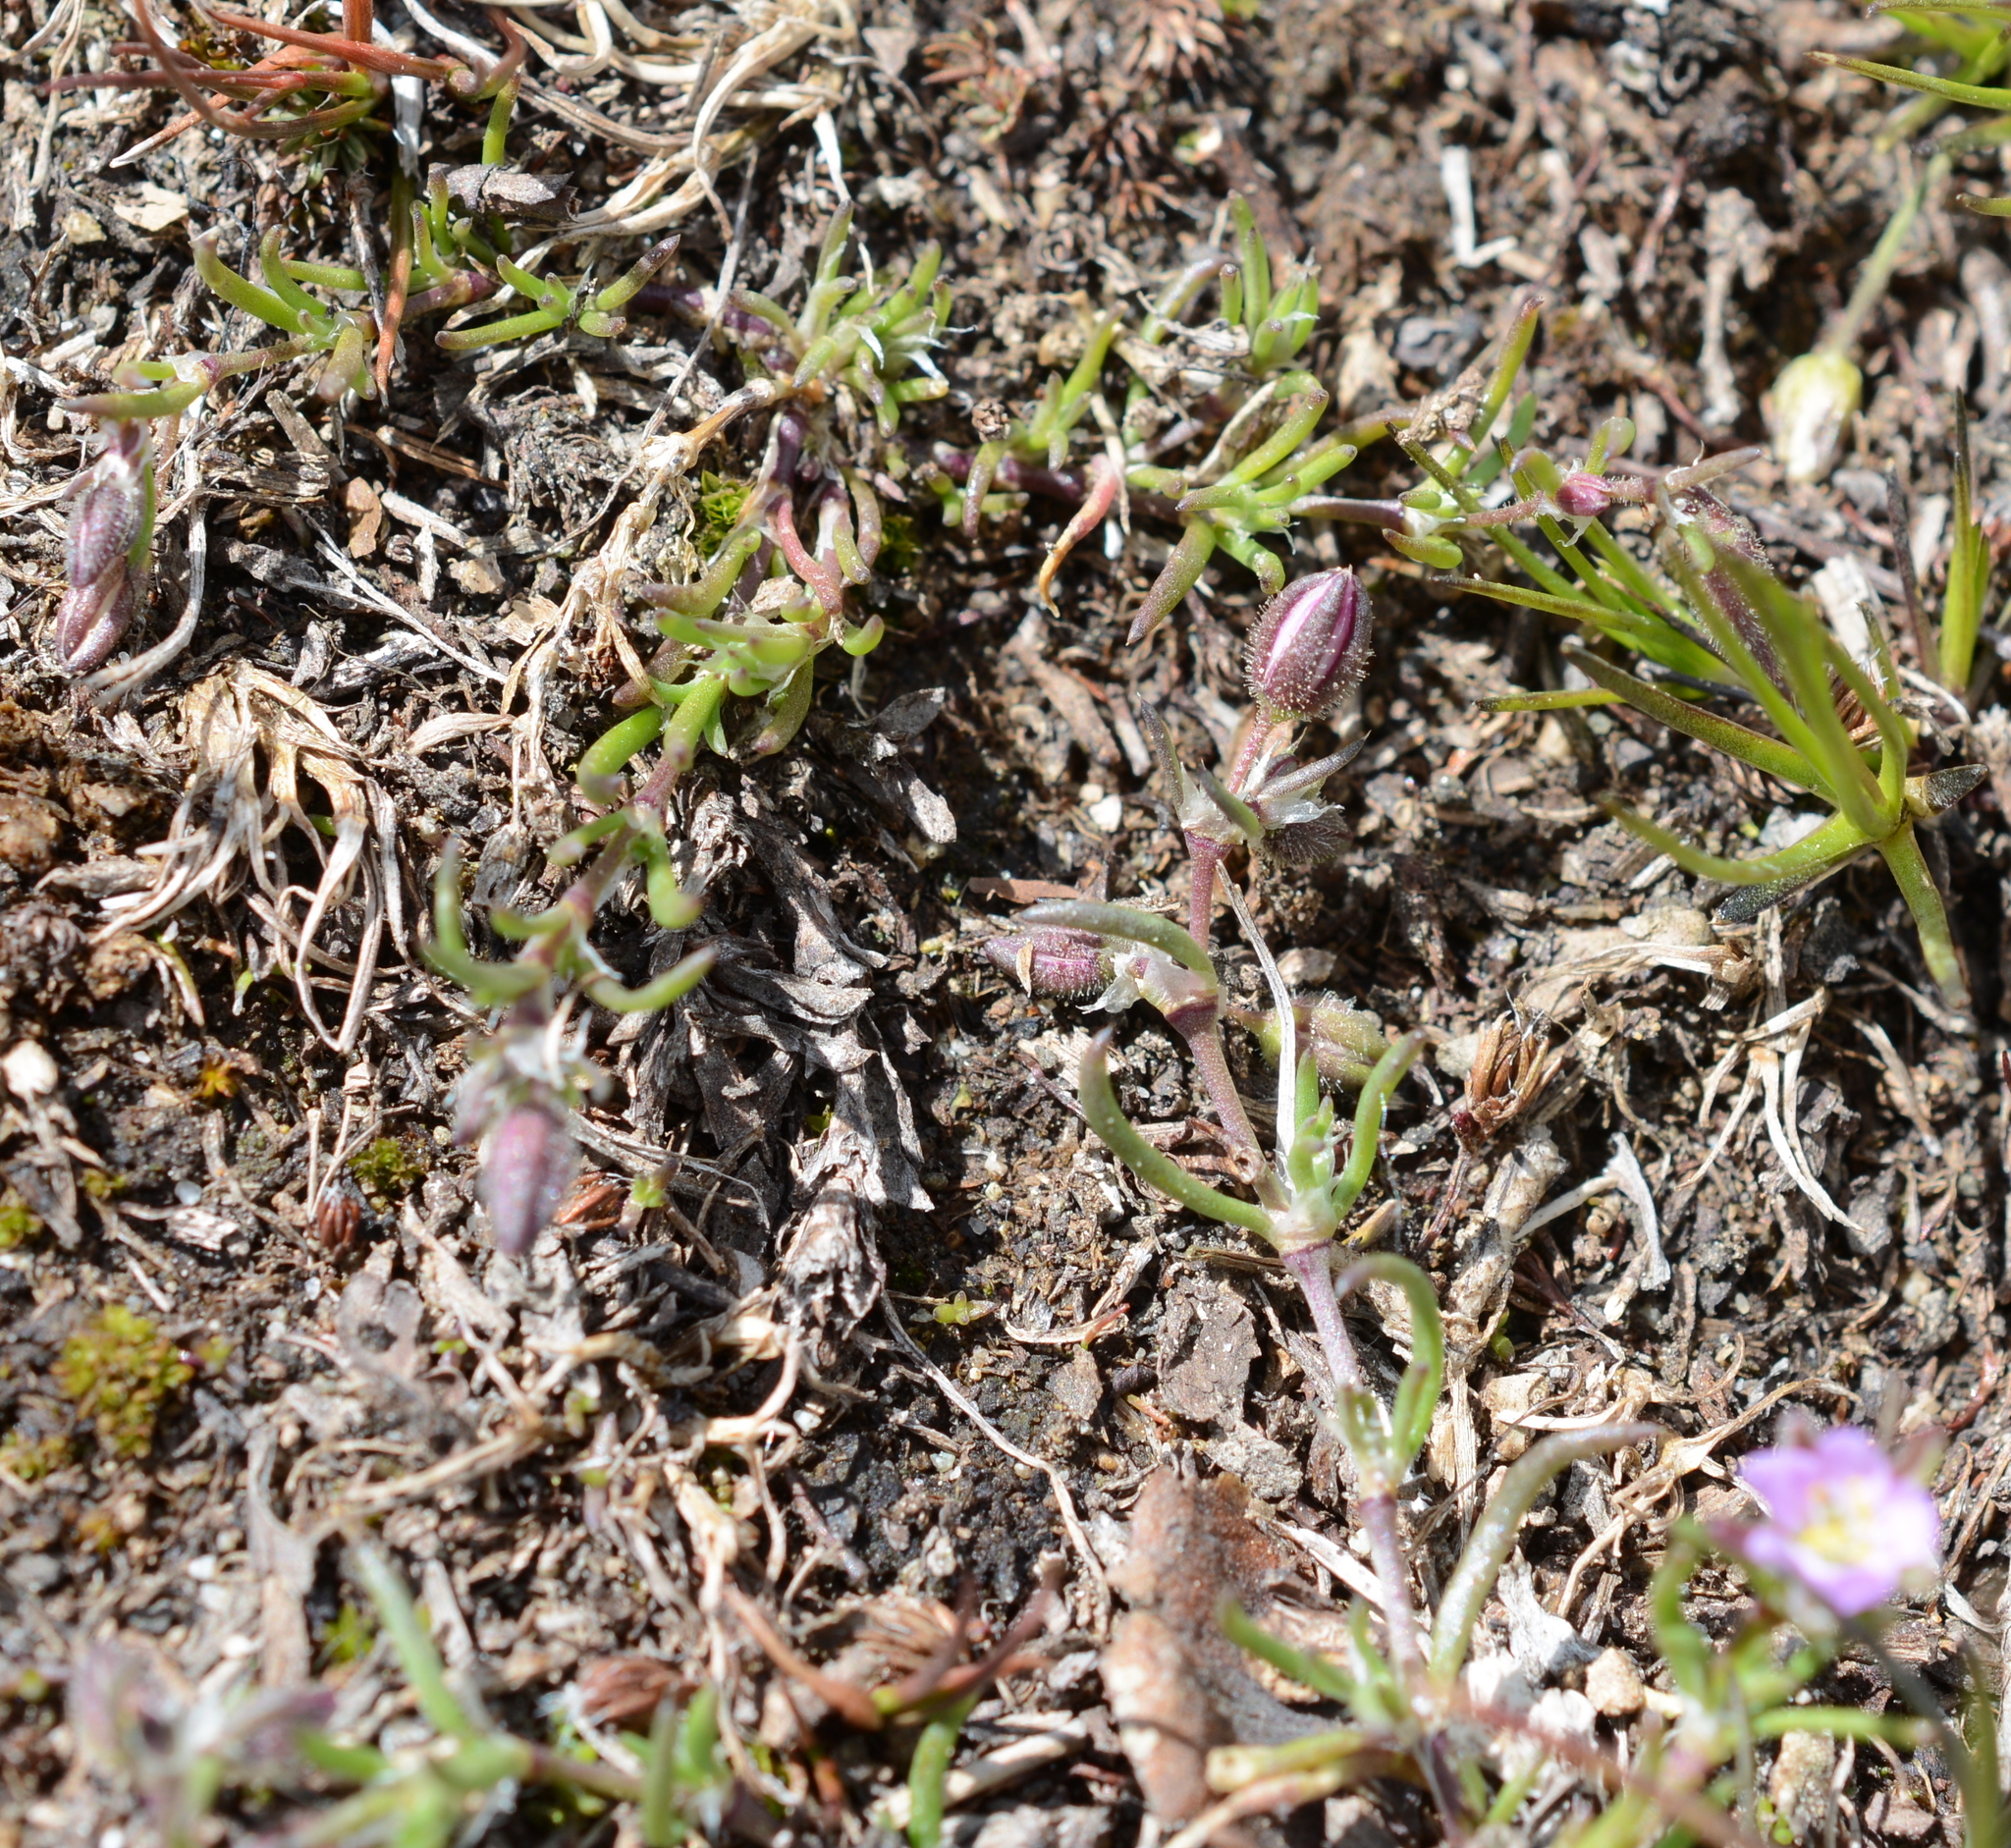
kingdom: Plantae
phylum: Tracheophyta
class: Magnoliopsida
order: Caryophyllales
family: Caryophyllaceae
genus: Spergularia
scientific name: Spergularia rubra
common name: Red sand-spurrey
